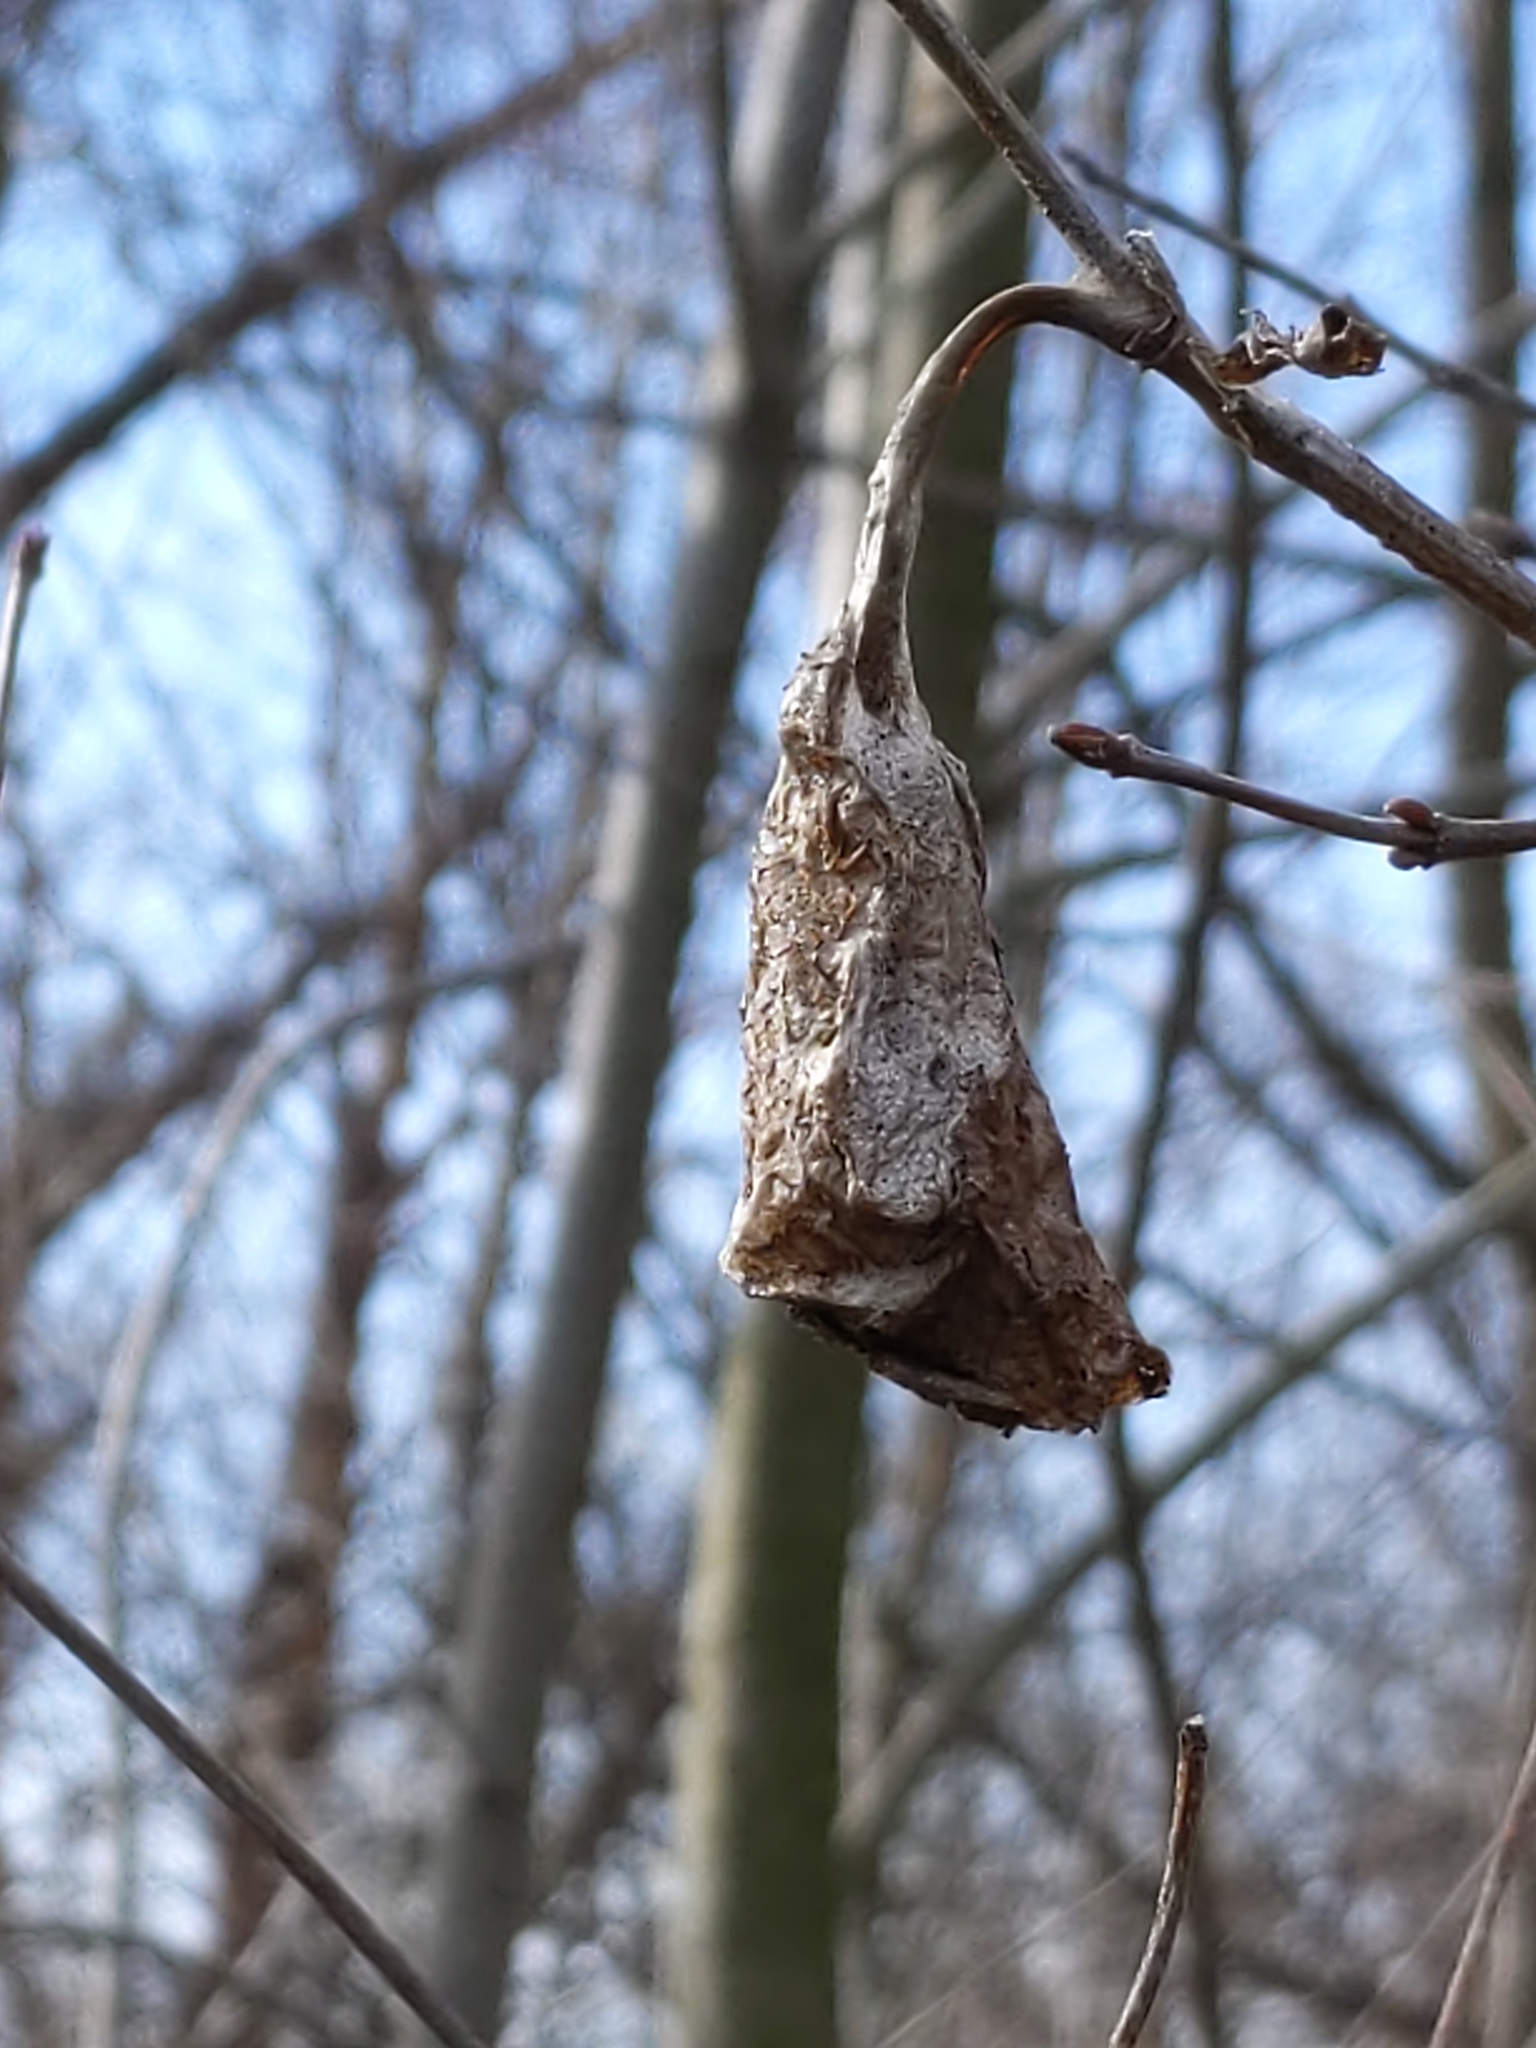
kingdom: Animalia
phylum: Arthropoda
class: Insecta
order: Lepidoptera
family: Saturniidae
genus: Callosamia
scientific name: Callosamia promethea
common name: Promethea silkmoth
